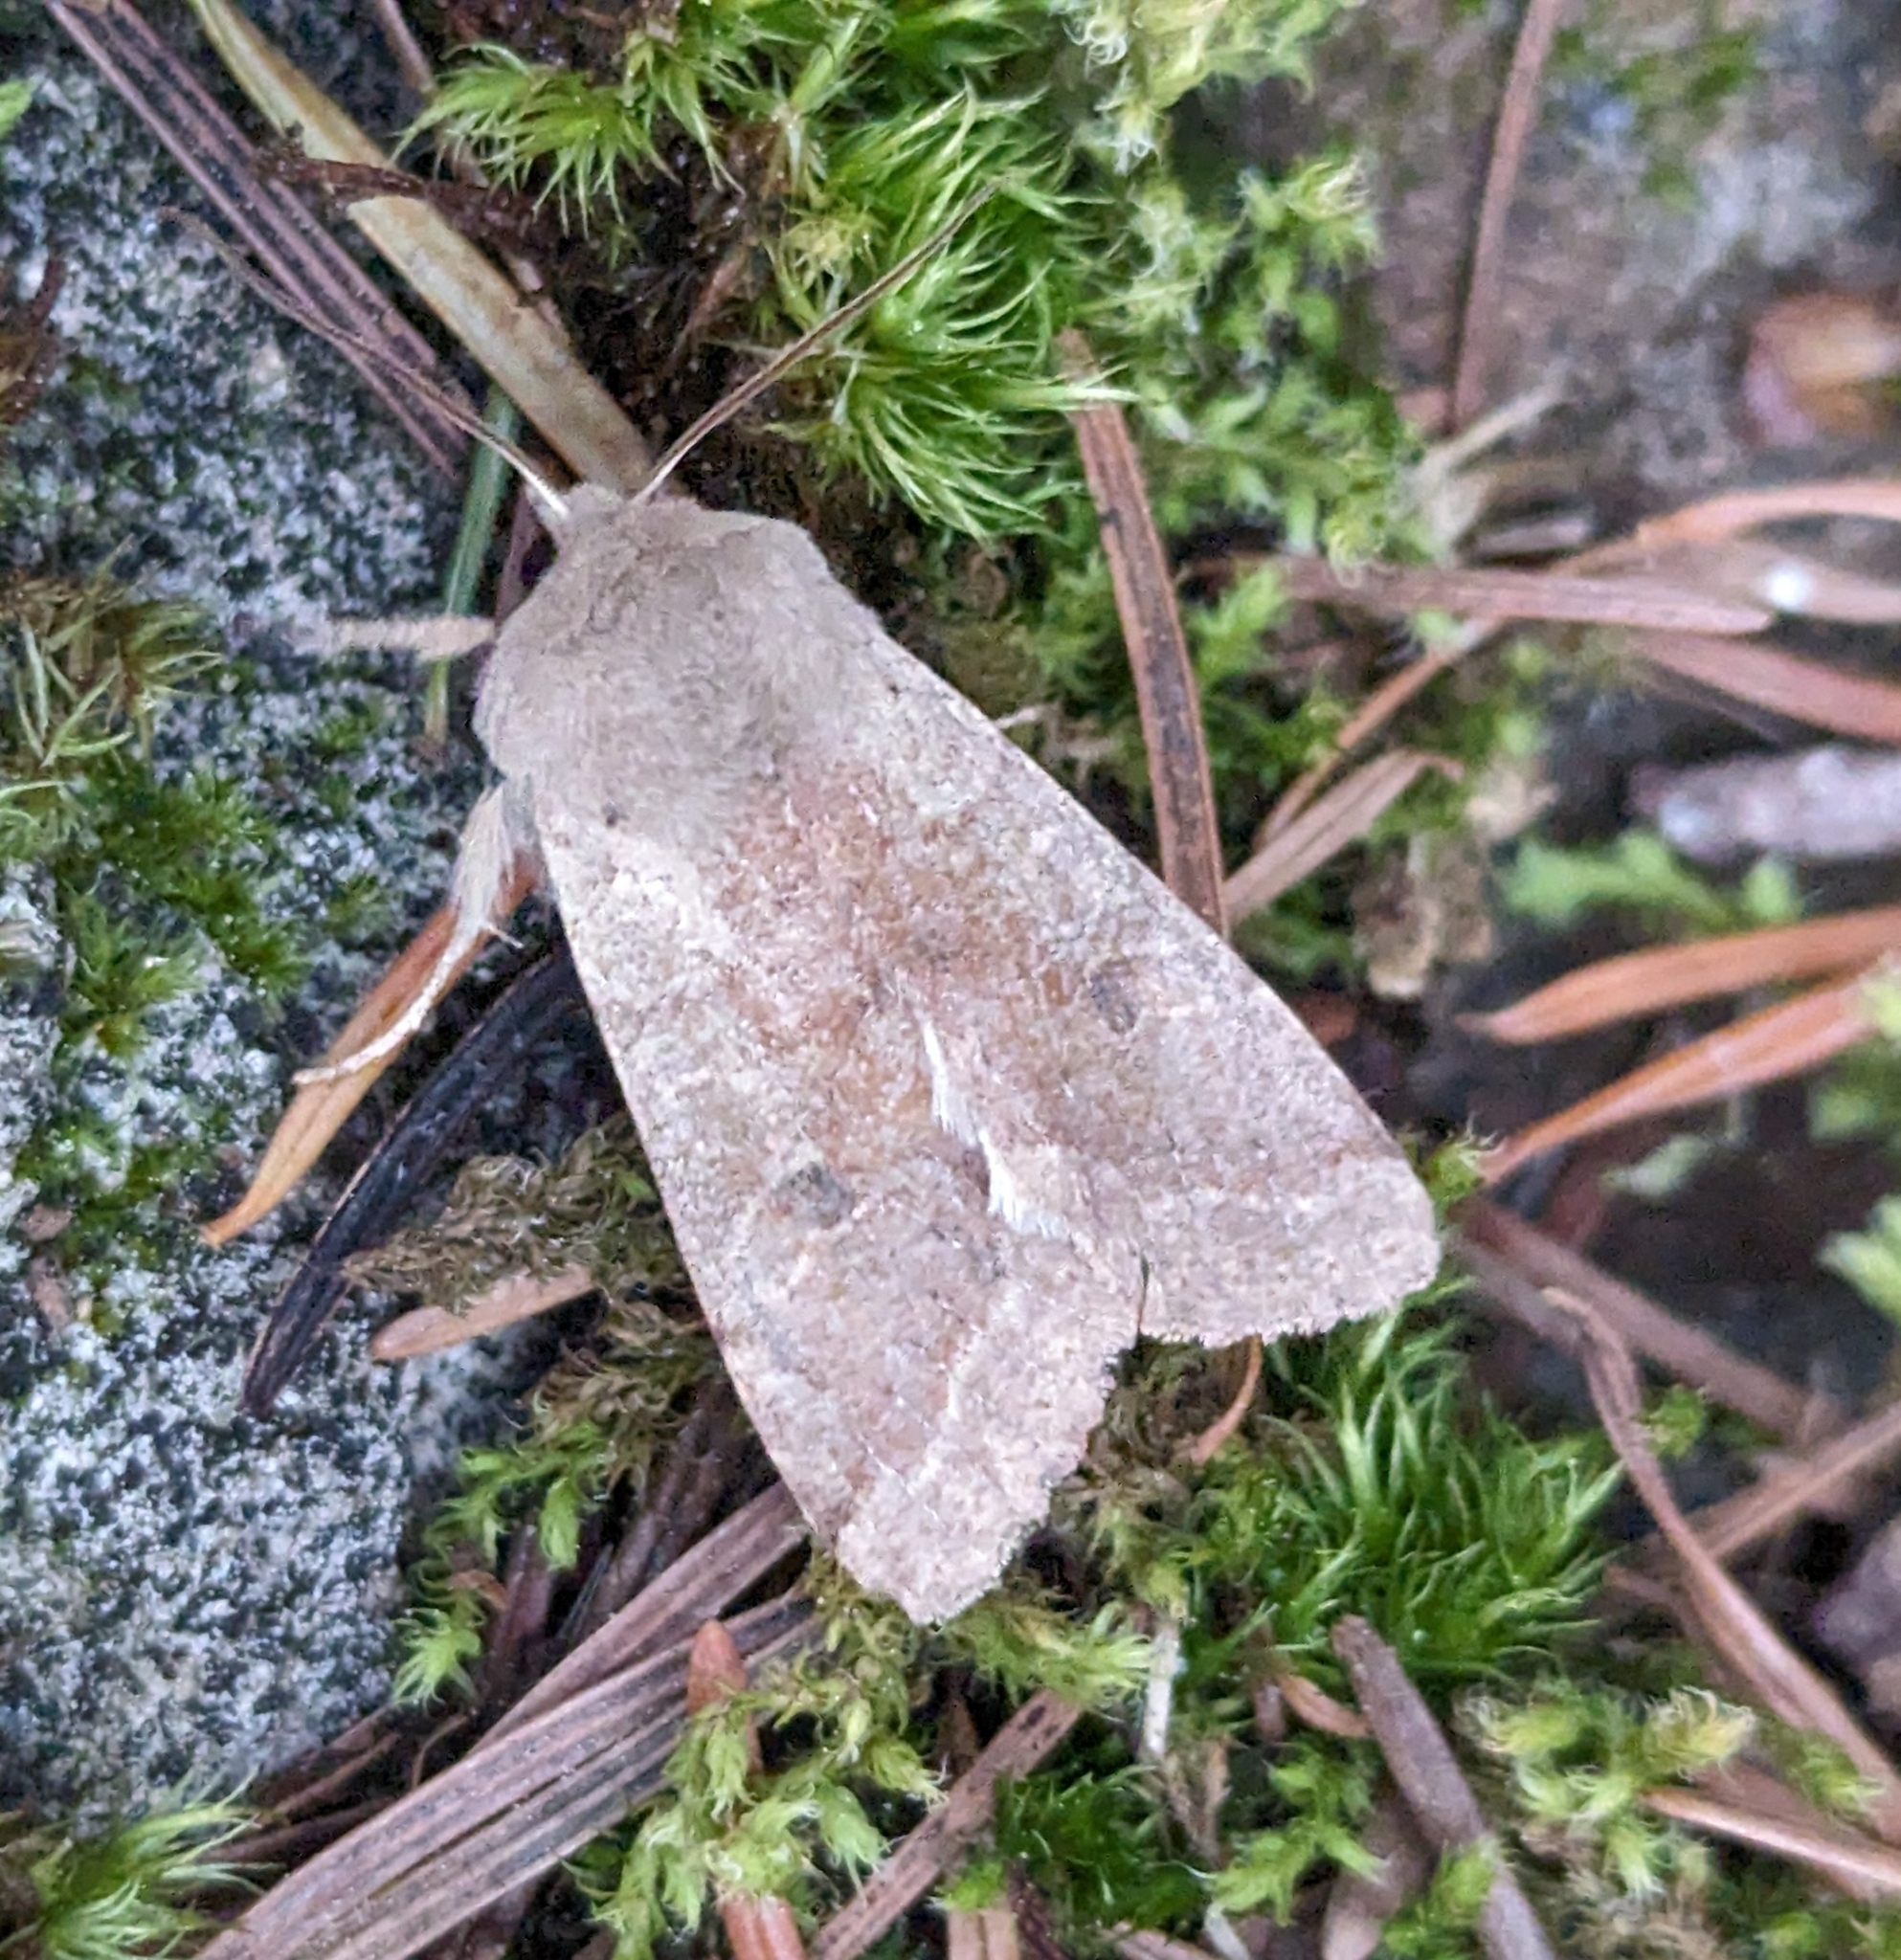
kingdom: Animalia
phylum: Arthropoda
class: Insecta
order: Lepidoptera
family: Noctuidae
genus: Orthosia
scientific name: Orthosia pacifica
